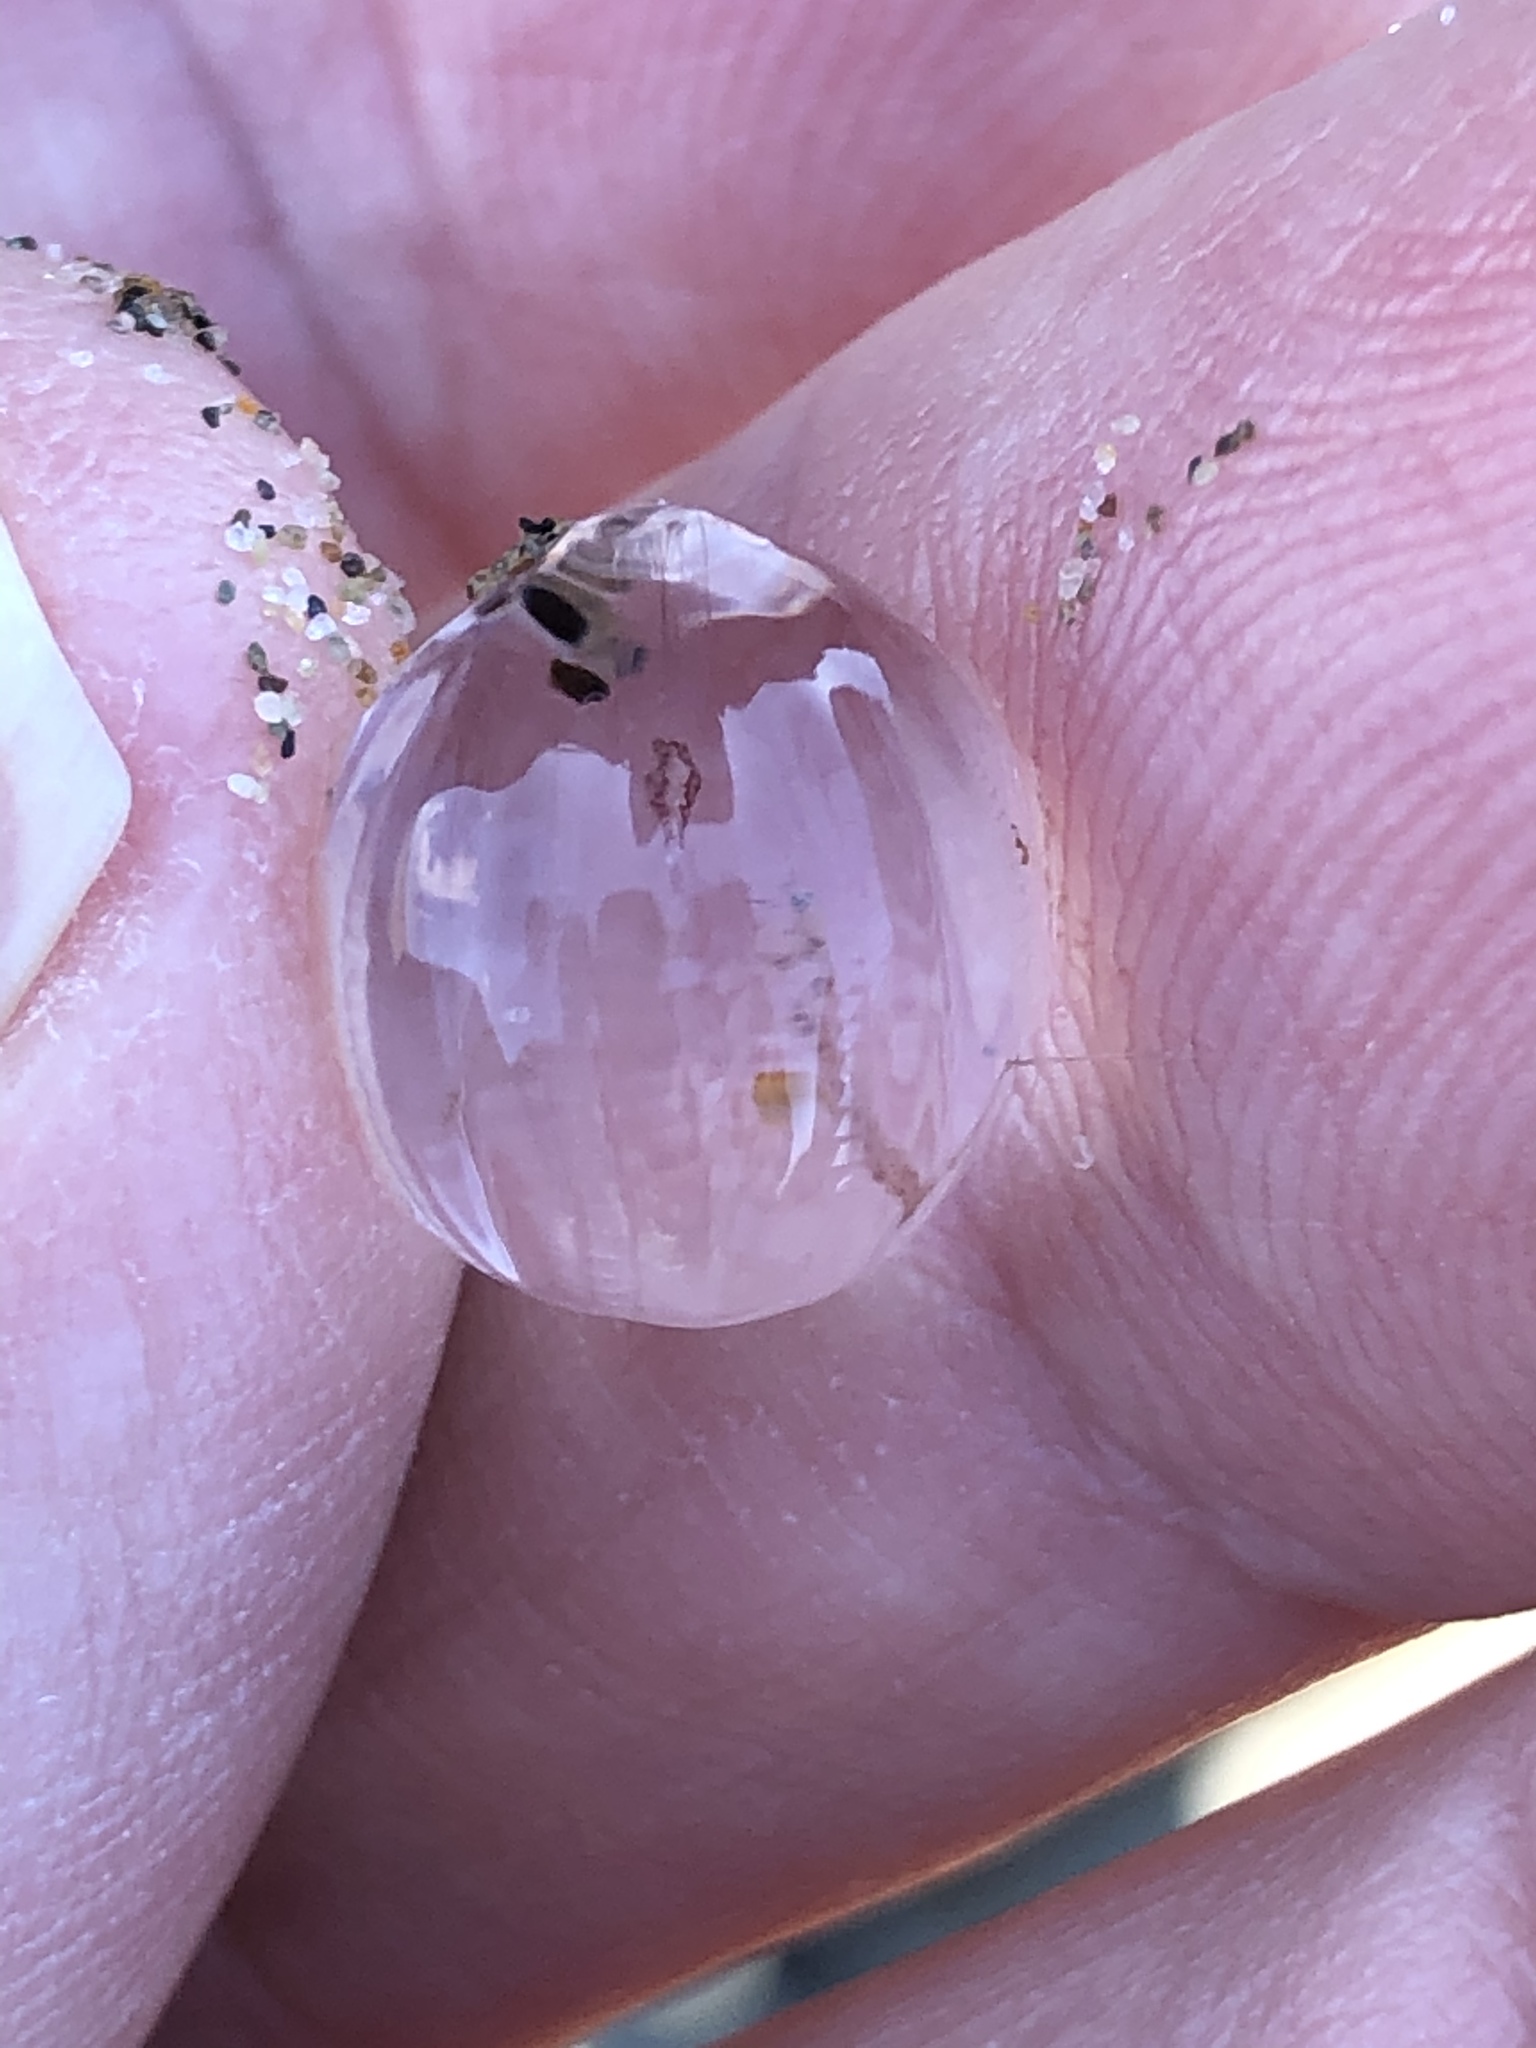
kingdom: Animalia
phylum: Ctenophora
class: Tentaculata
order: Cydippida
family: Pleurobrachiidae
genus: Pleurobrachia
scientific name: Pleurobrachia bachei
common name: Pacific sea gooseberry
